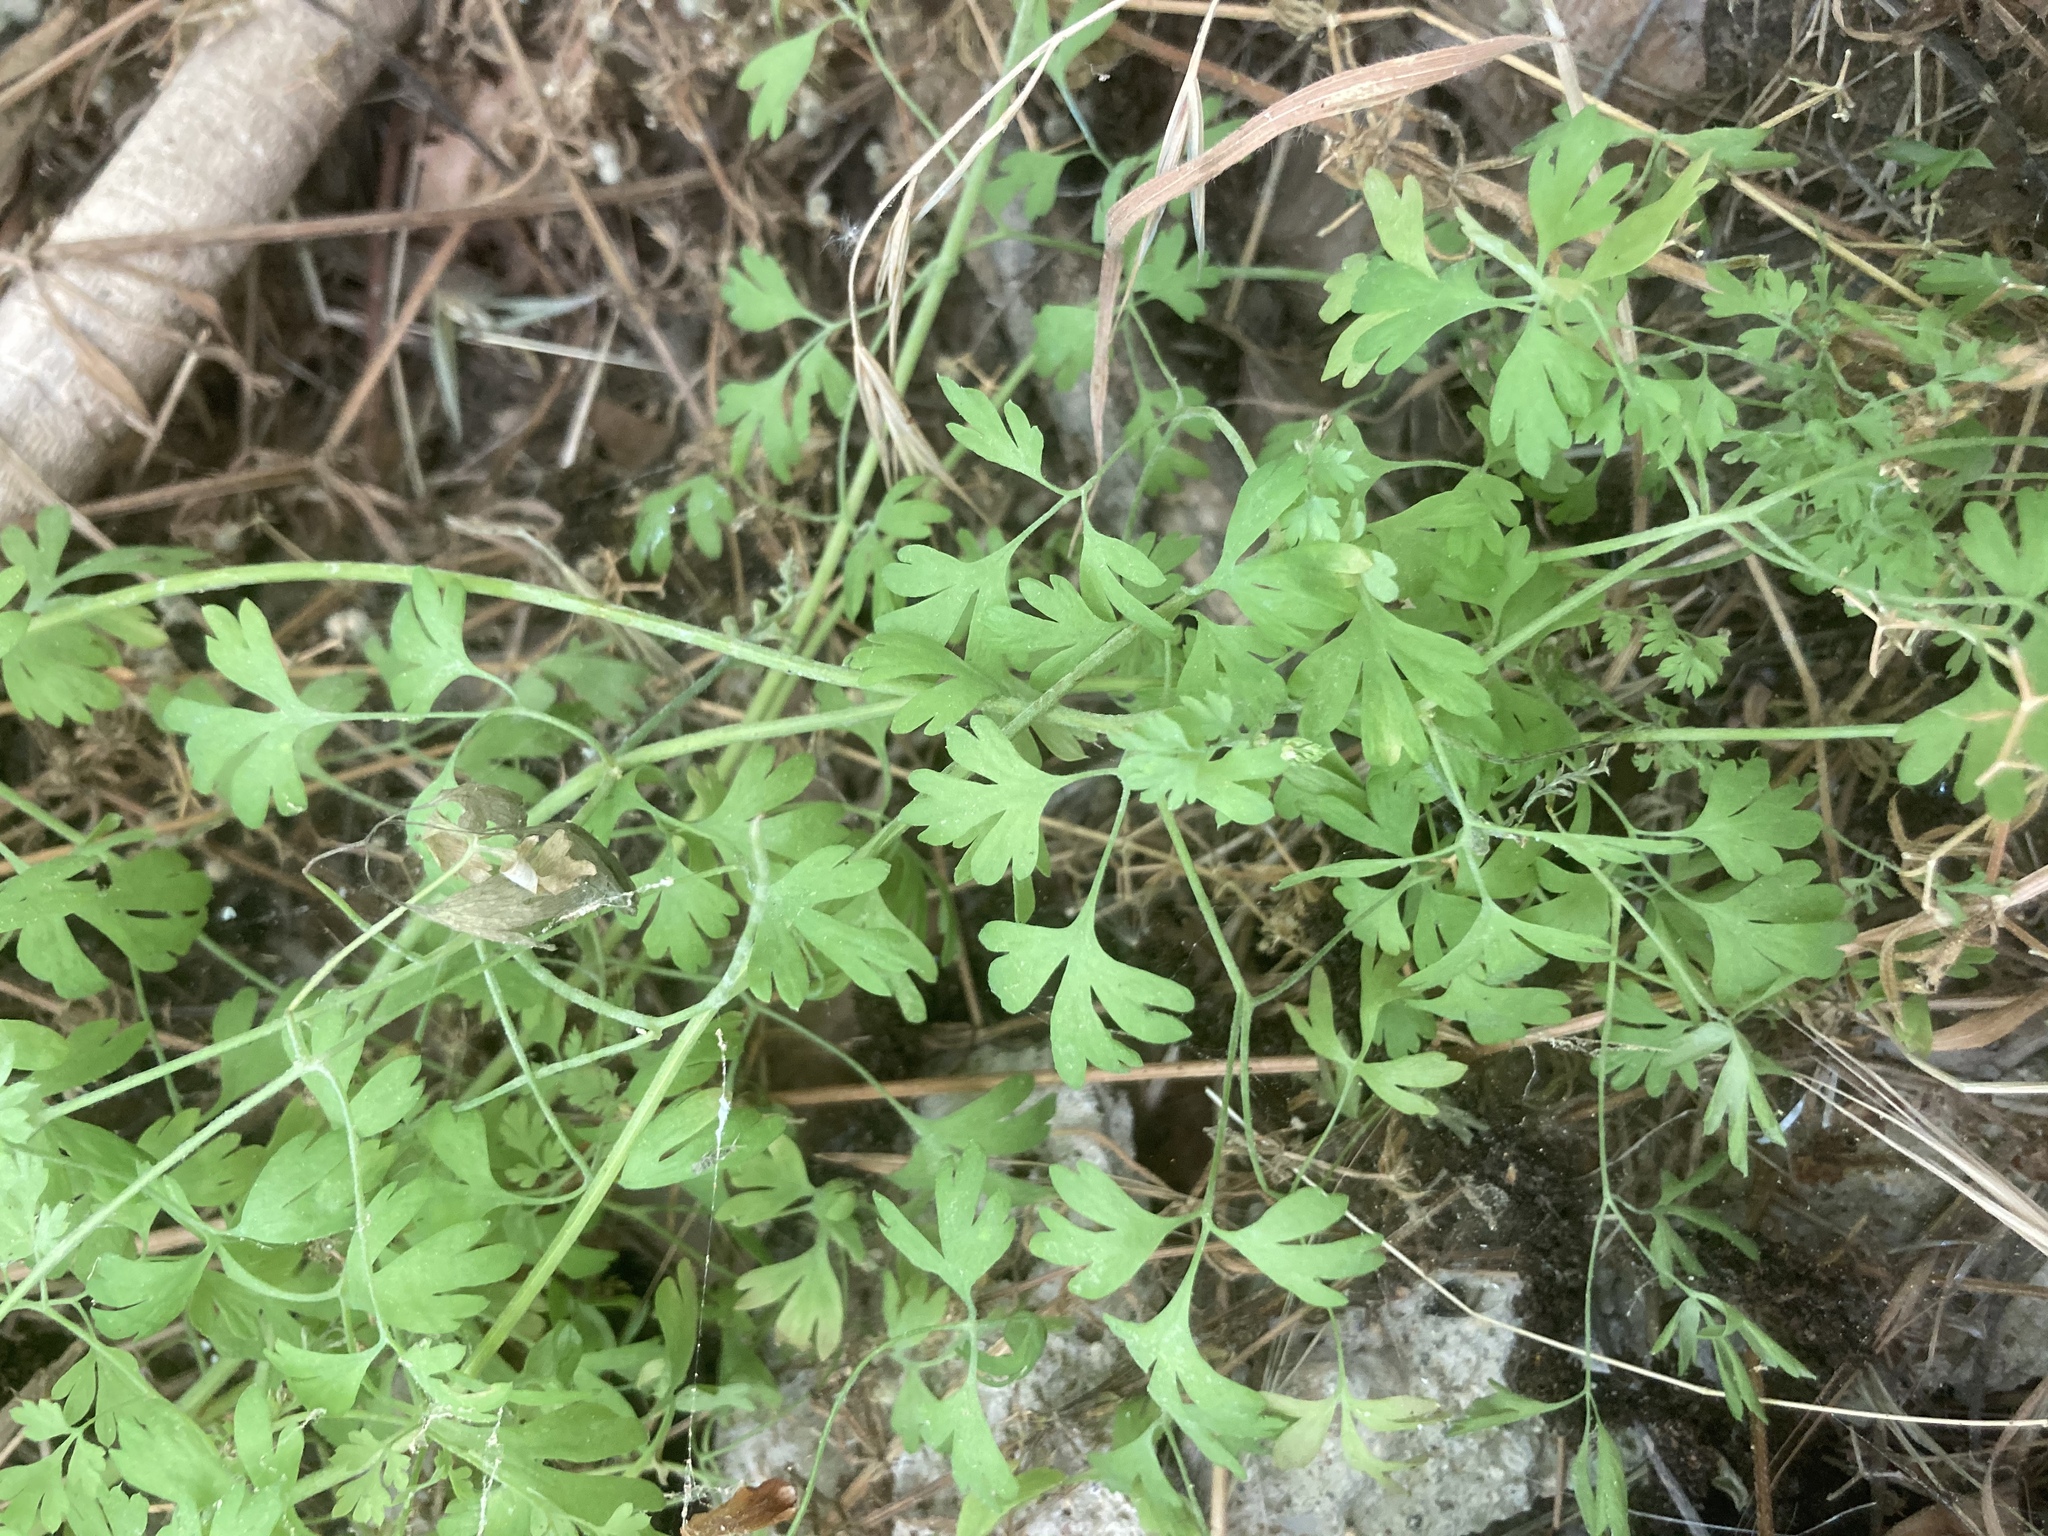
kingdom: Plantae
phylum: Tracheophyta
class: Magnoliopsida
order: Ranunculales
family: Papaveraceae
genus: Fumaria
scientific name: Fumaria
